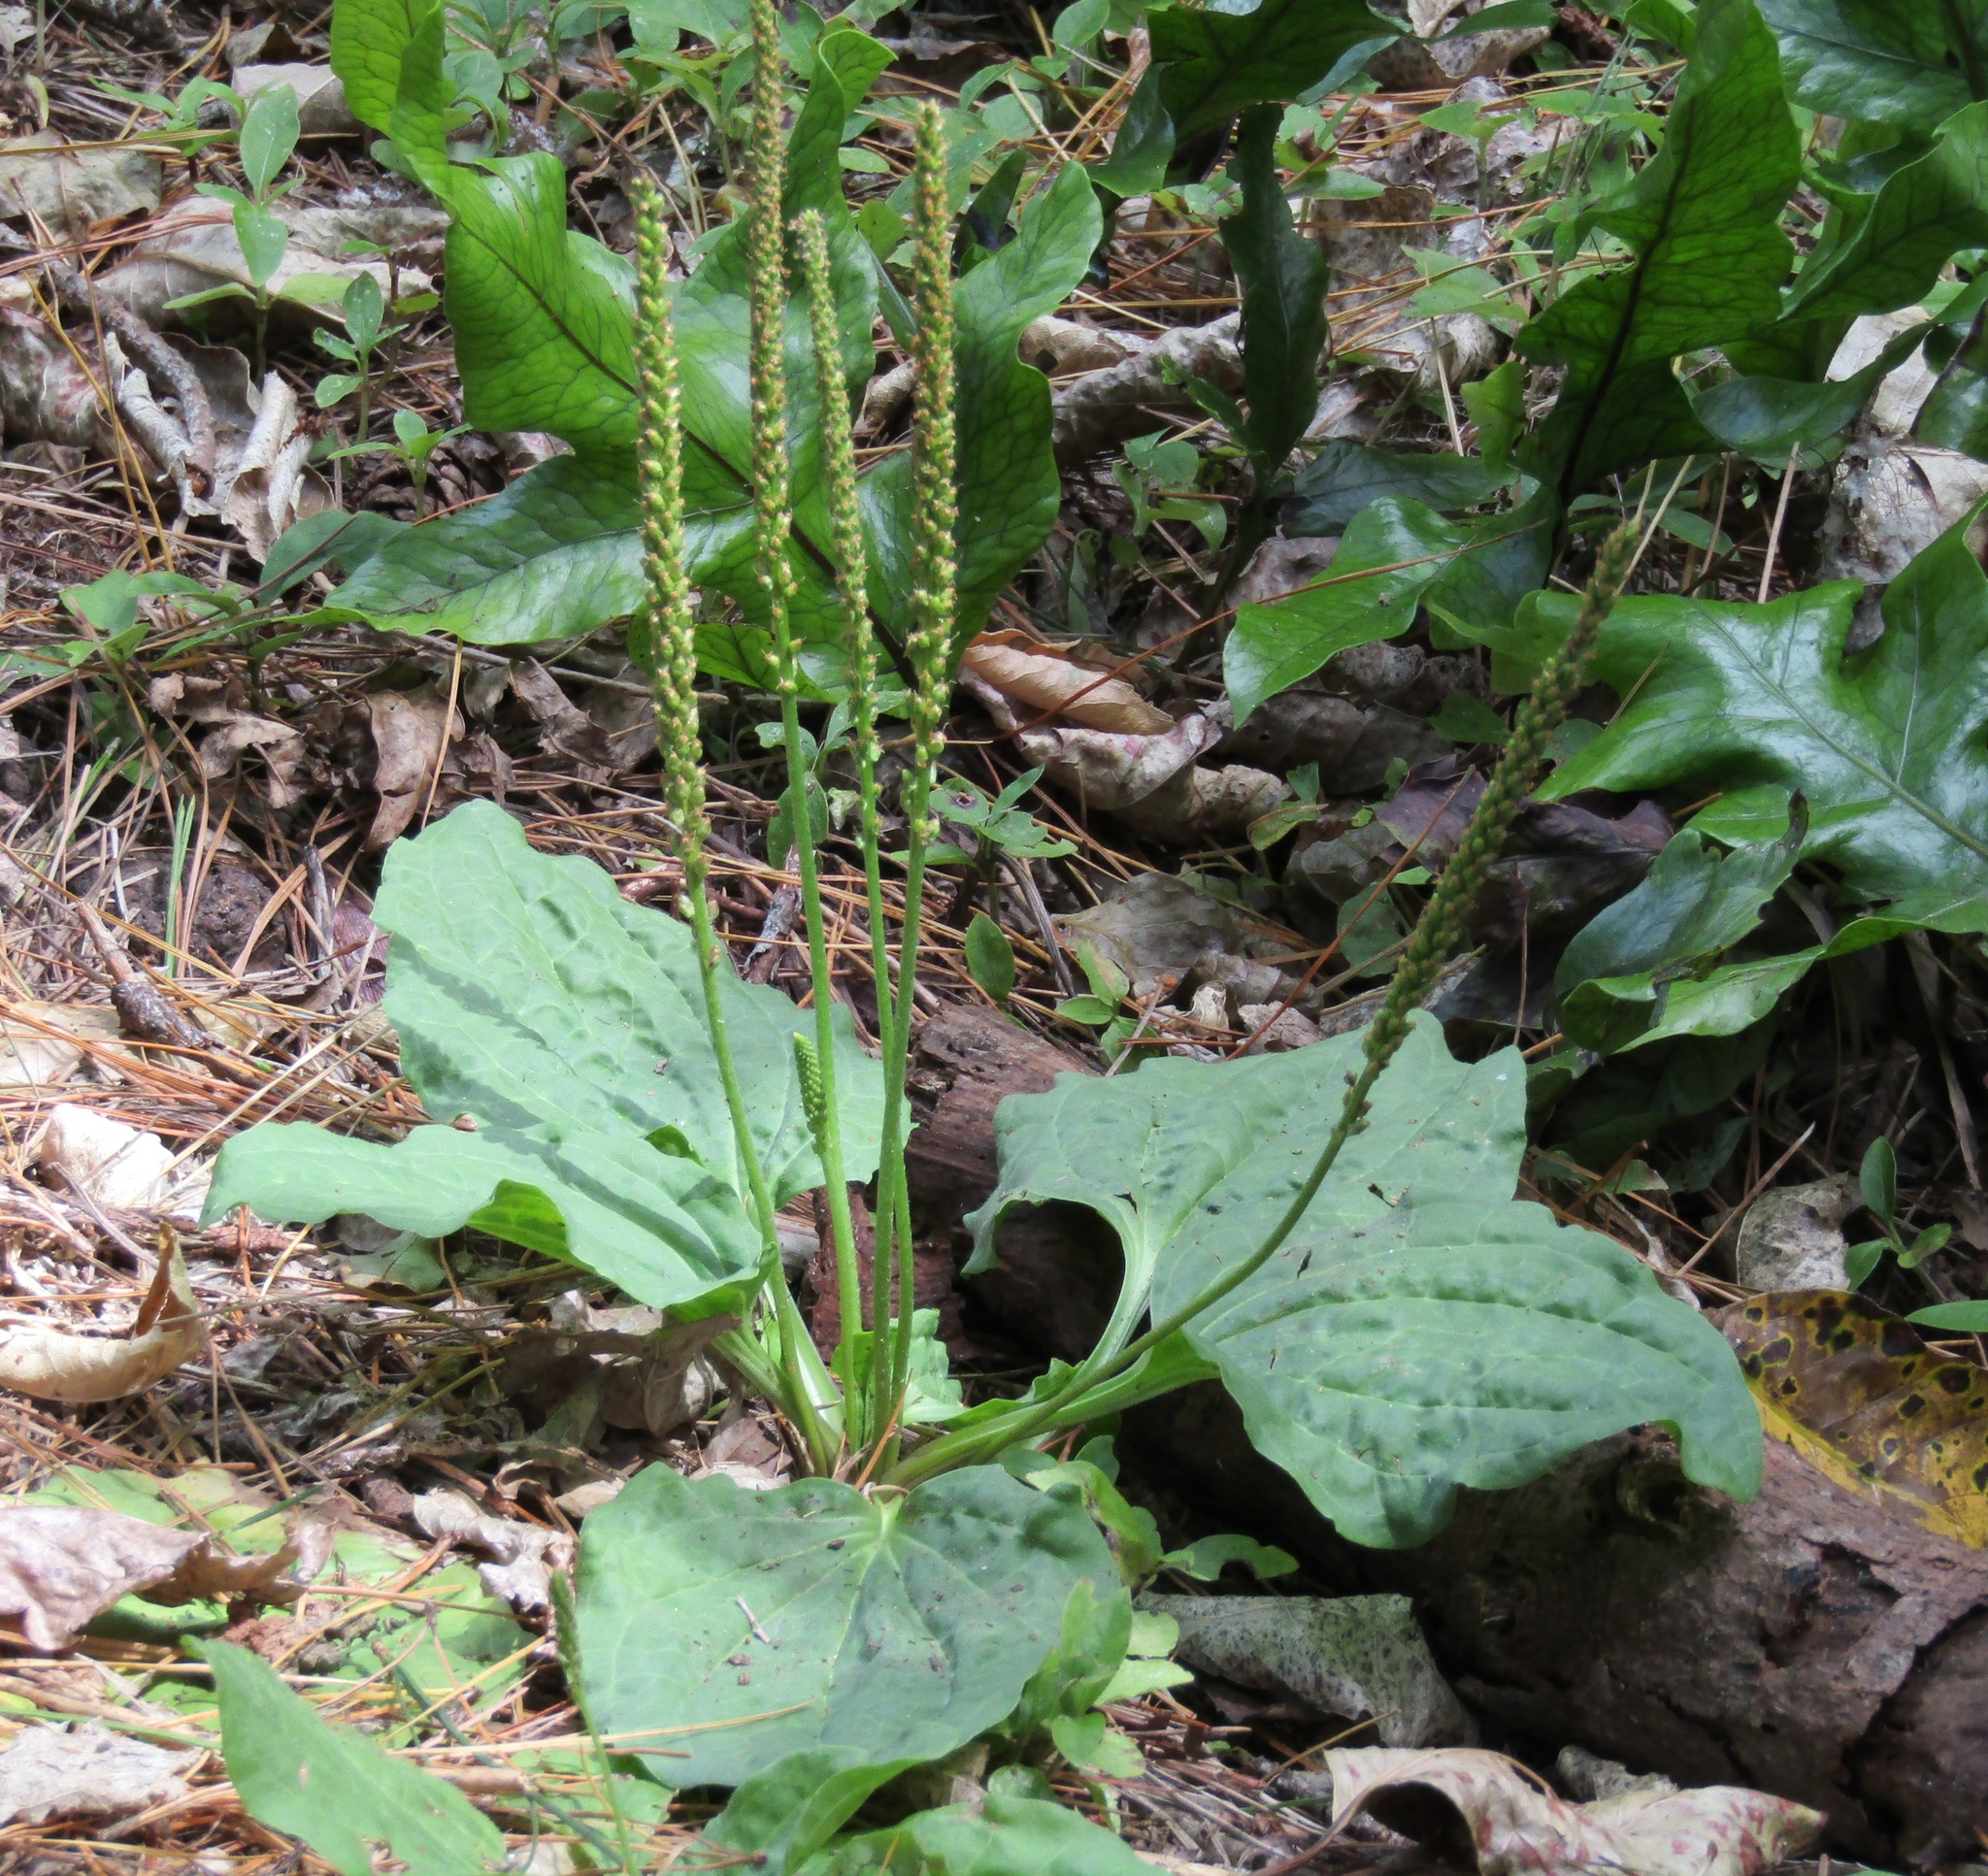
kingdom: Plantae
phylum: Tracheophyta
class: Magnoliopsida
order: Lamiales
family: Plantaginaceae
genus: Plantago
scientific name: Plantago major
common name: Common plantain
